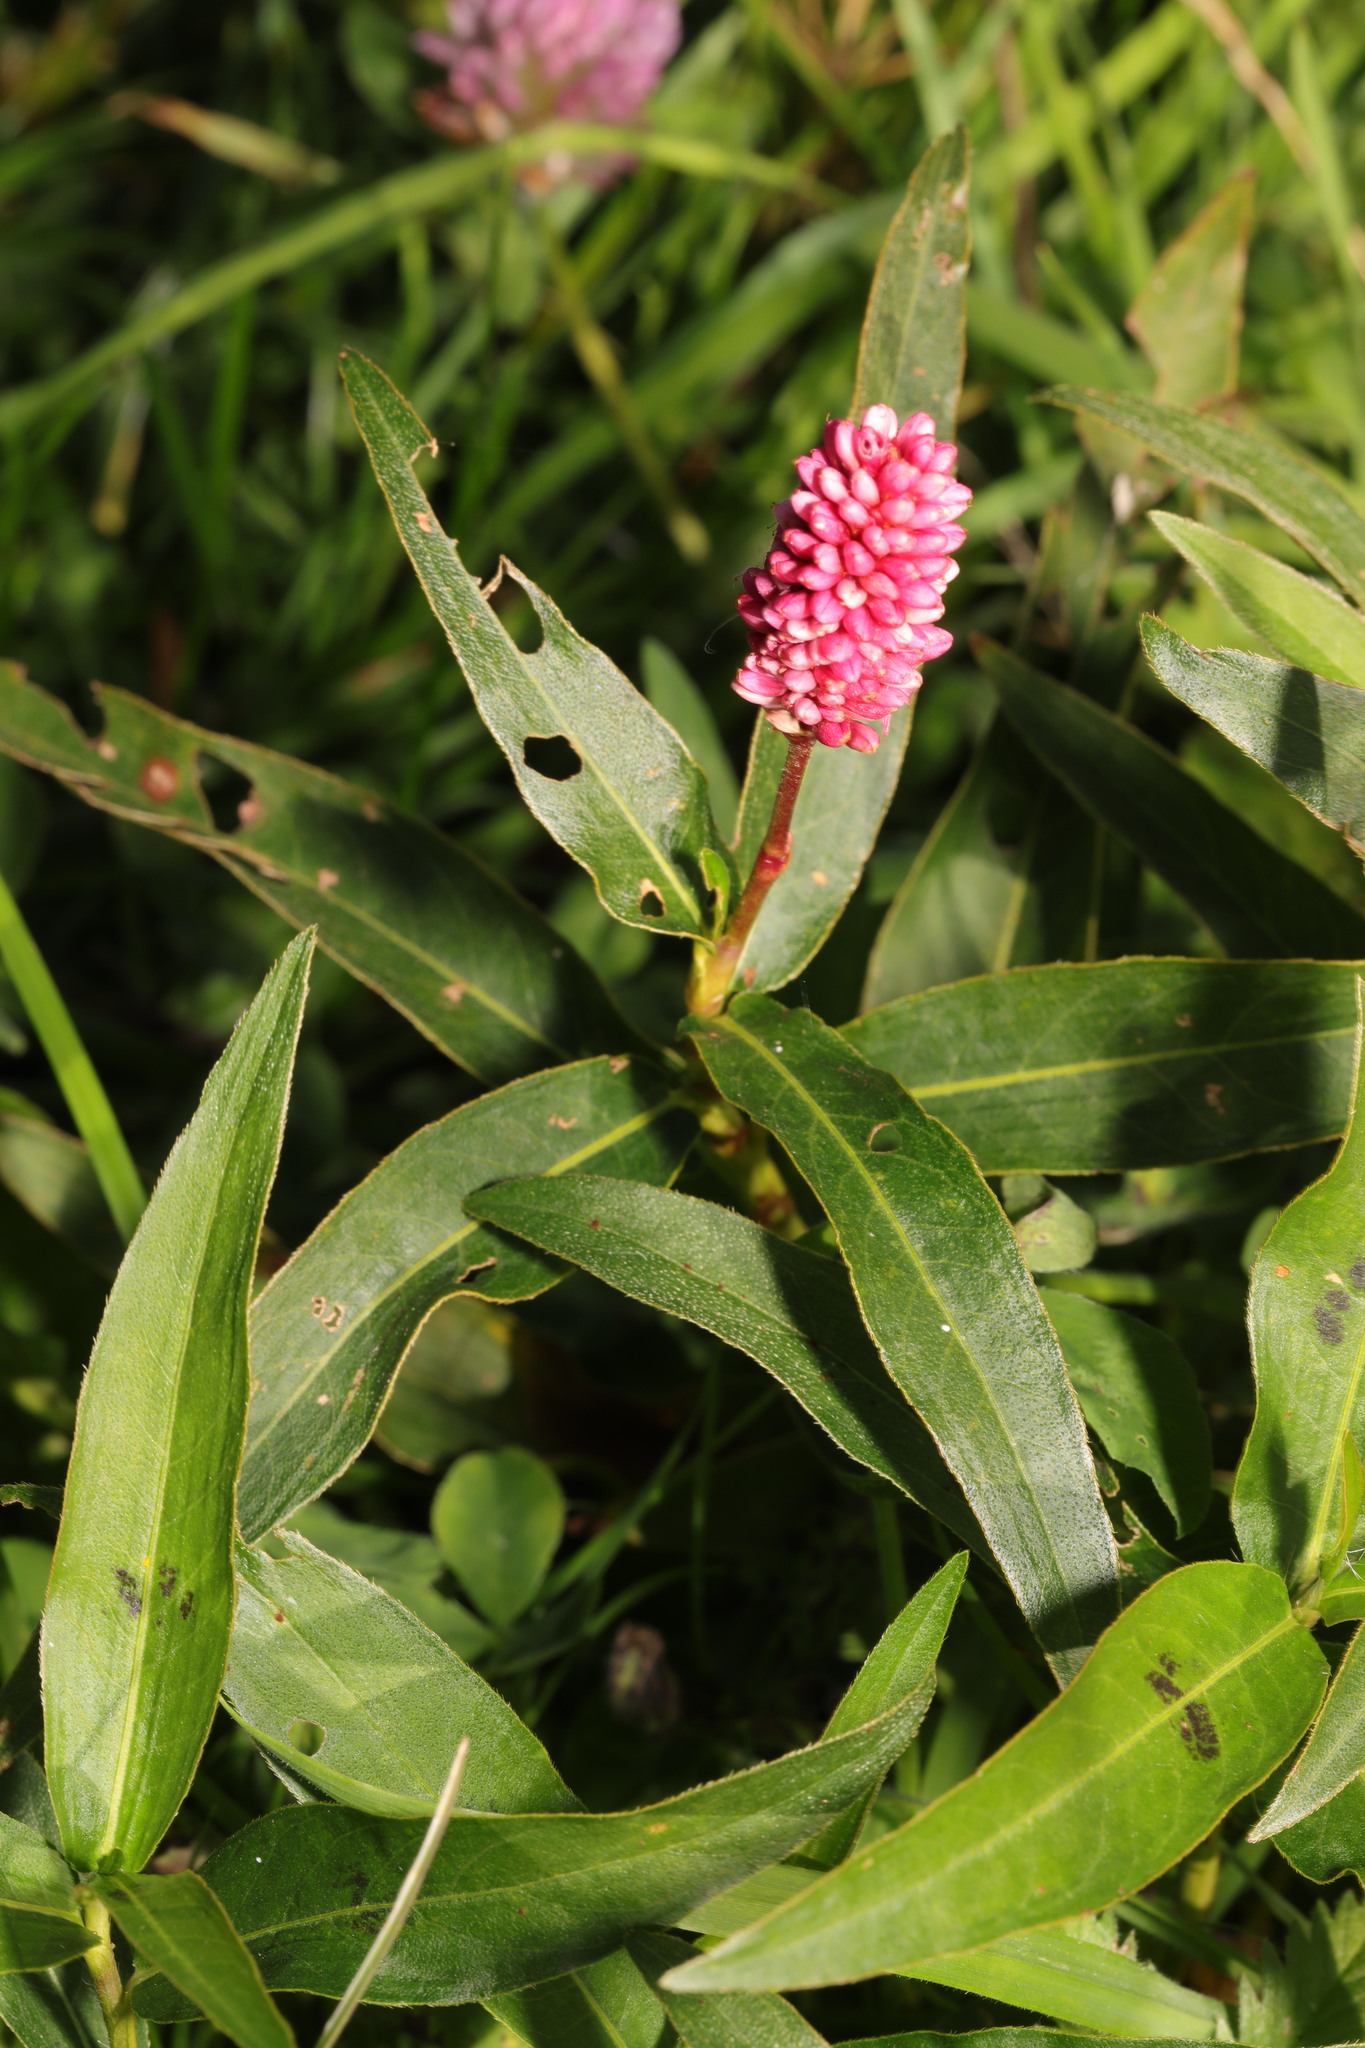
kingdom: Plantae
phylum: Tracheophyta
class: Magnoliopsida
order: Caryophyllales
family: Polygonaceae
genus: Persicaria
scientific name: Persicaria amphibia
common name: Amphibious bistort
